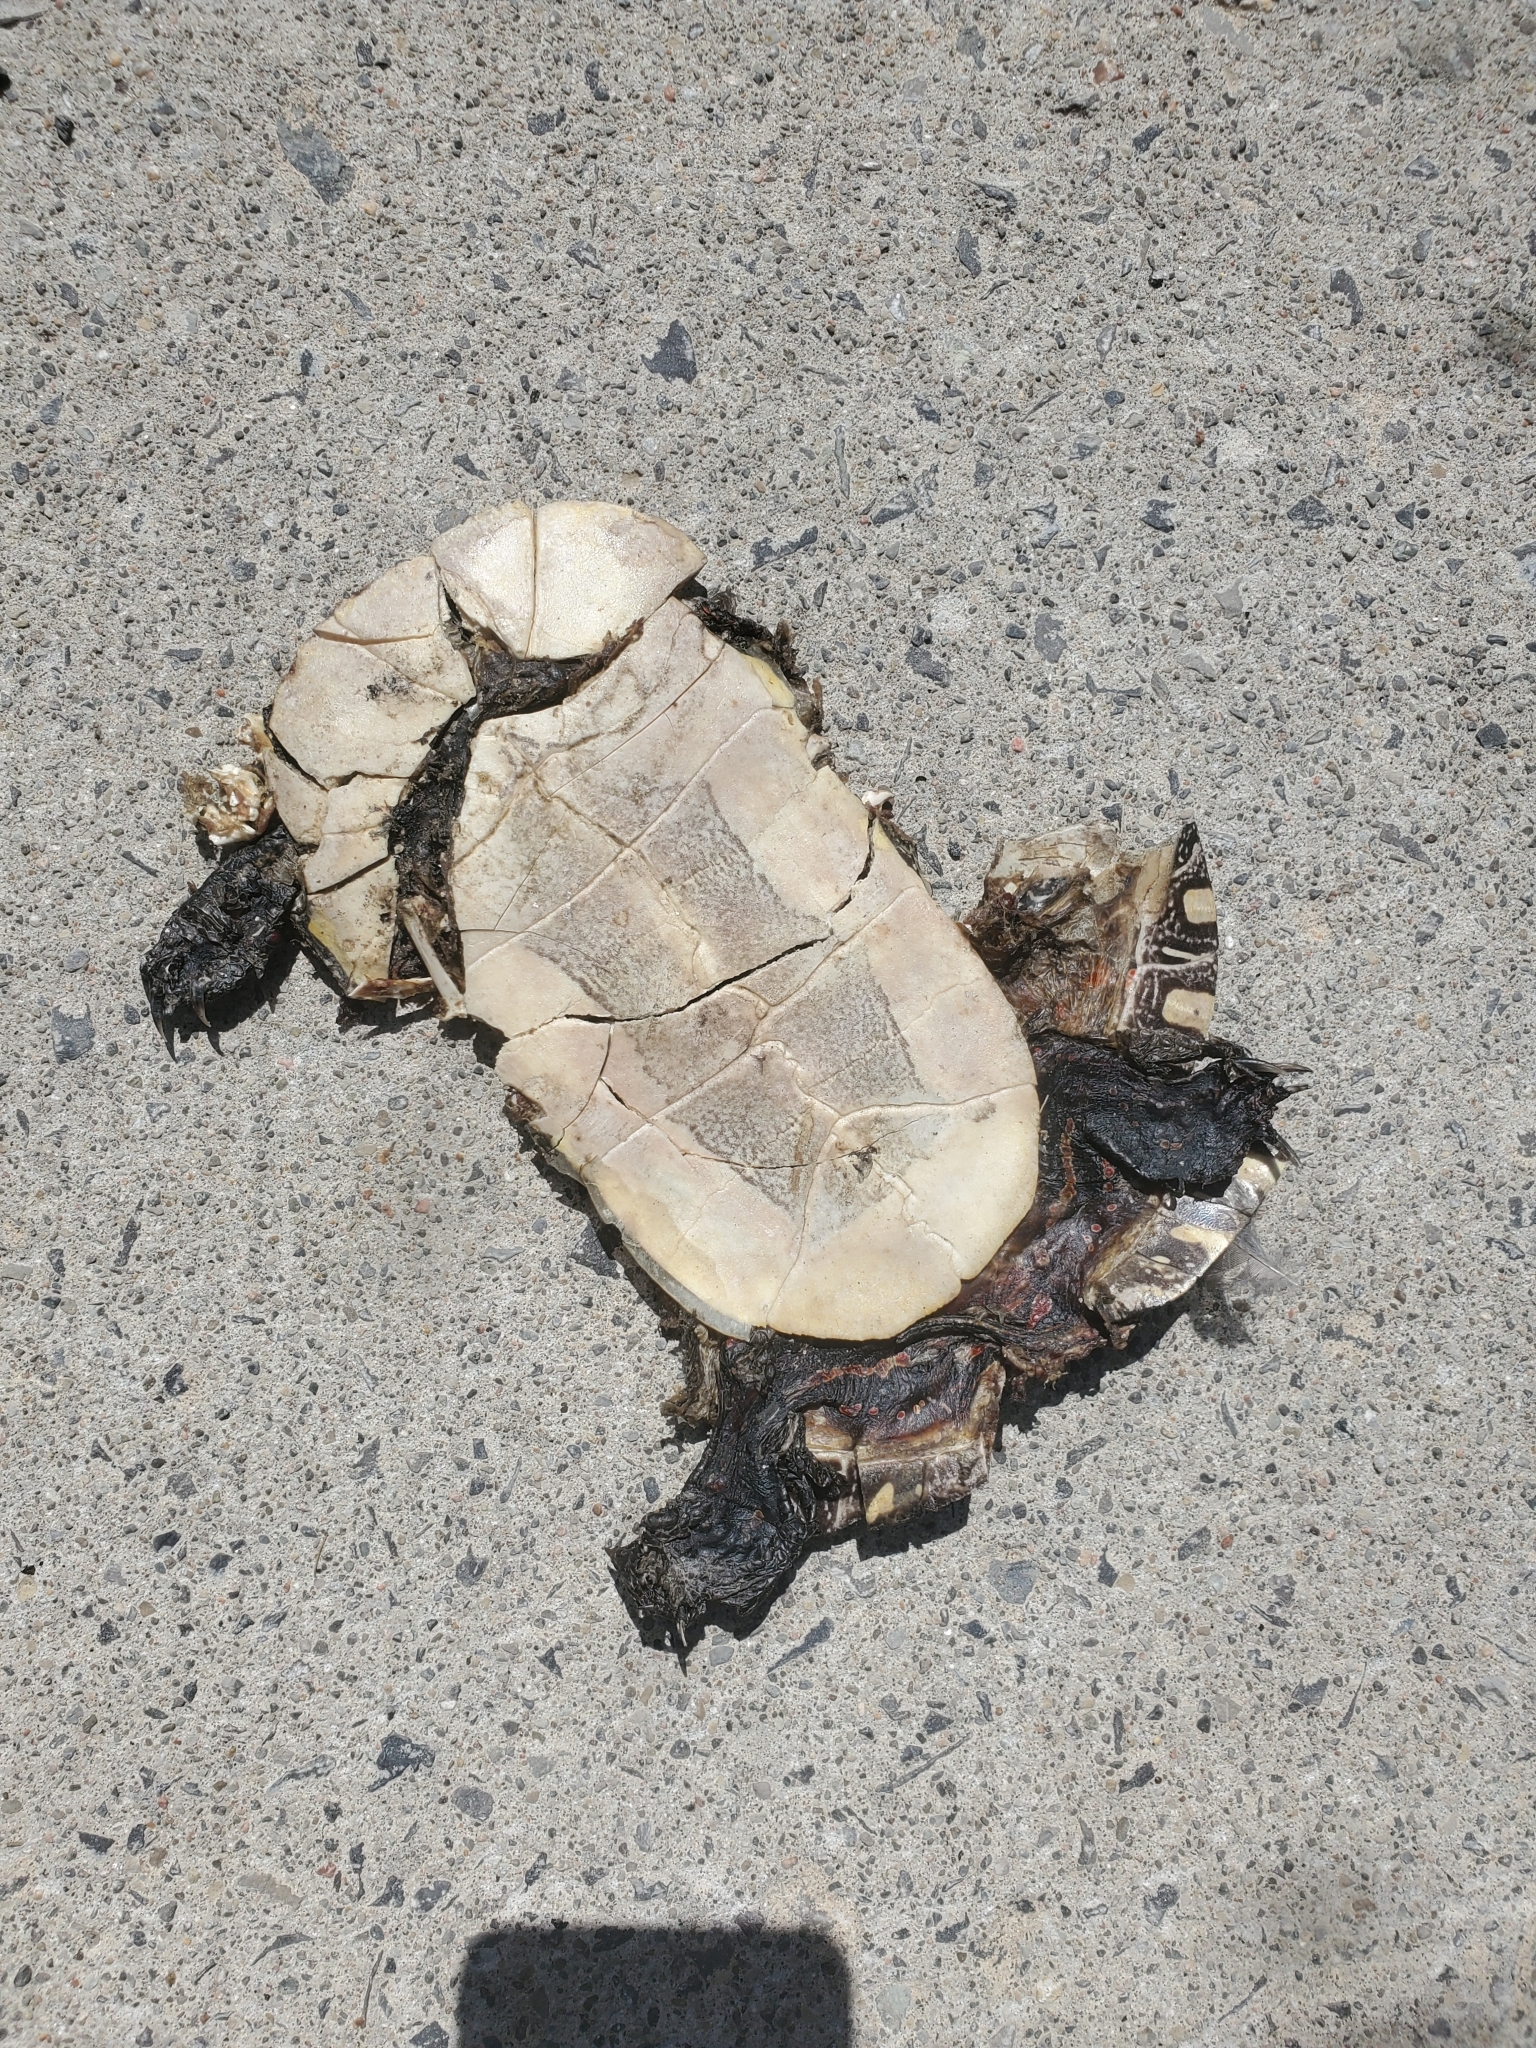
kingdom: Animalia
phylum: Chordata
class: Testudines
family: Emydidae
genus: Chrysemys
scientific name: Chrysemys picta
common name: Painted turtle
